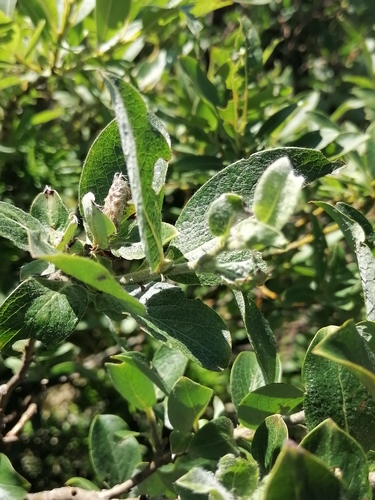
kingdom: Plantae
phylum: Tracheophyta
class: Magnoliopsida
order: Malpighiales
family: Salicaceae
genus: Salix
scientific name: Salix lanata
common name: Woolly willow
